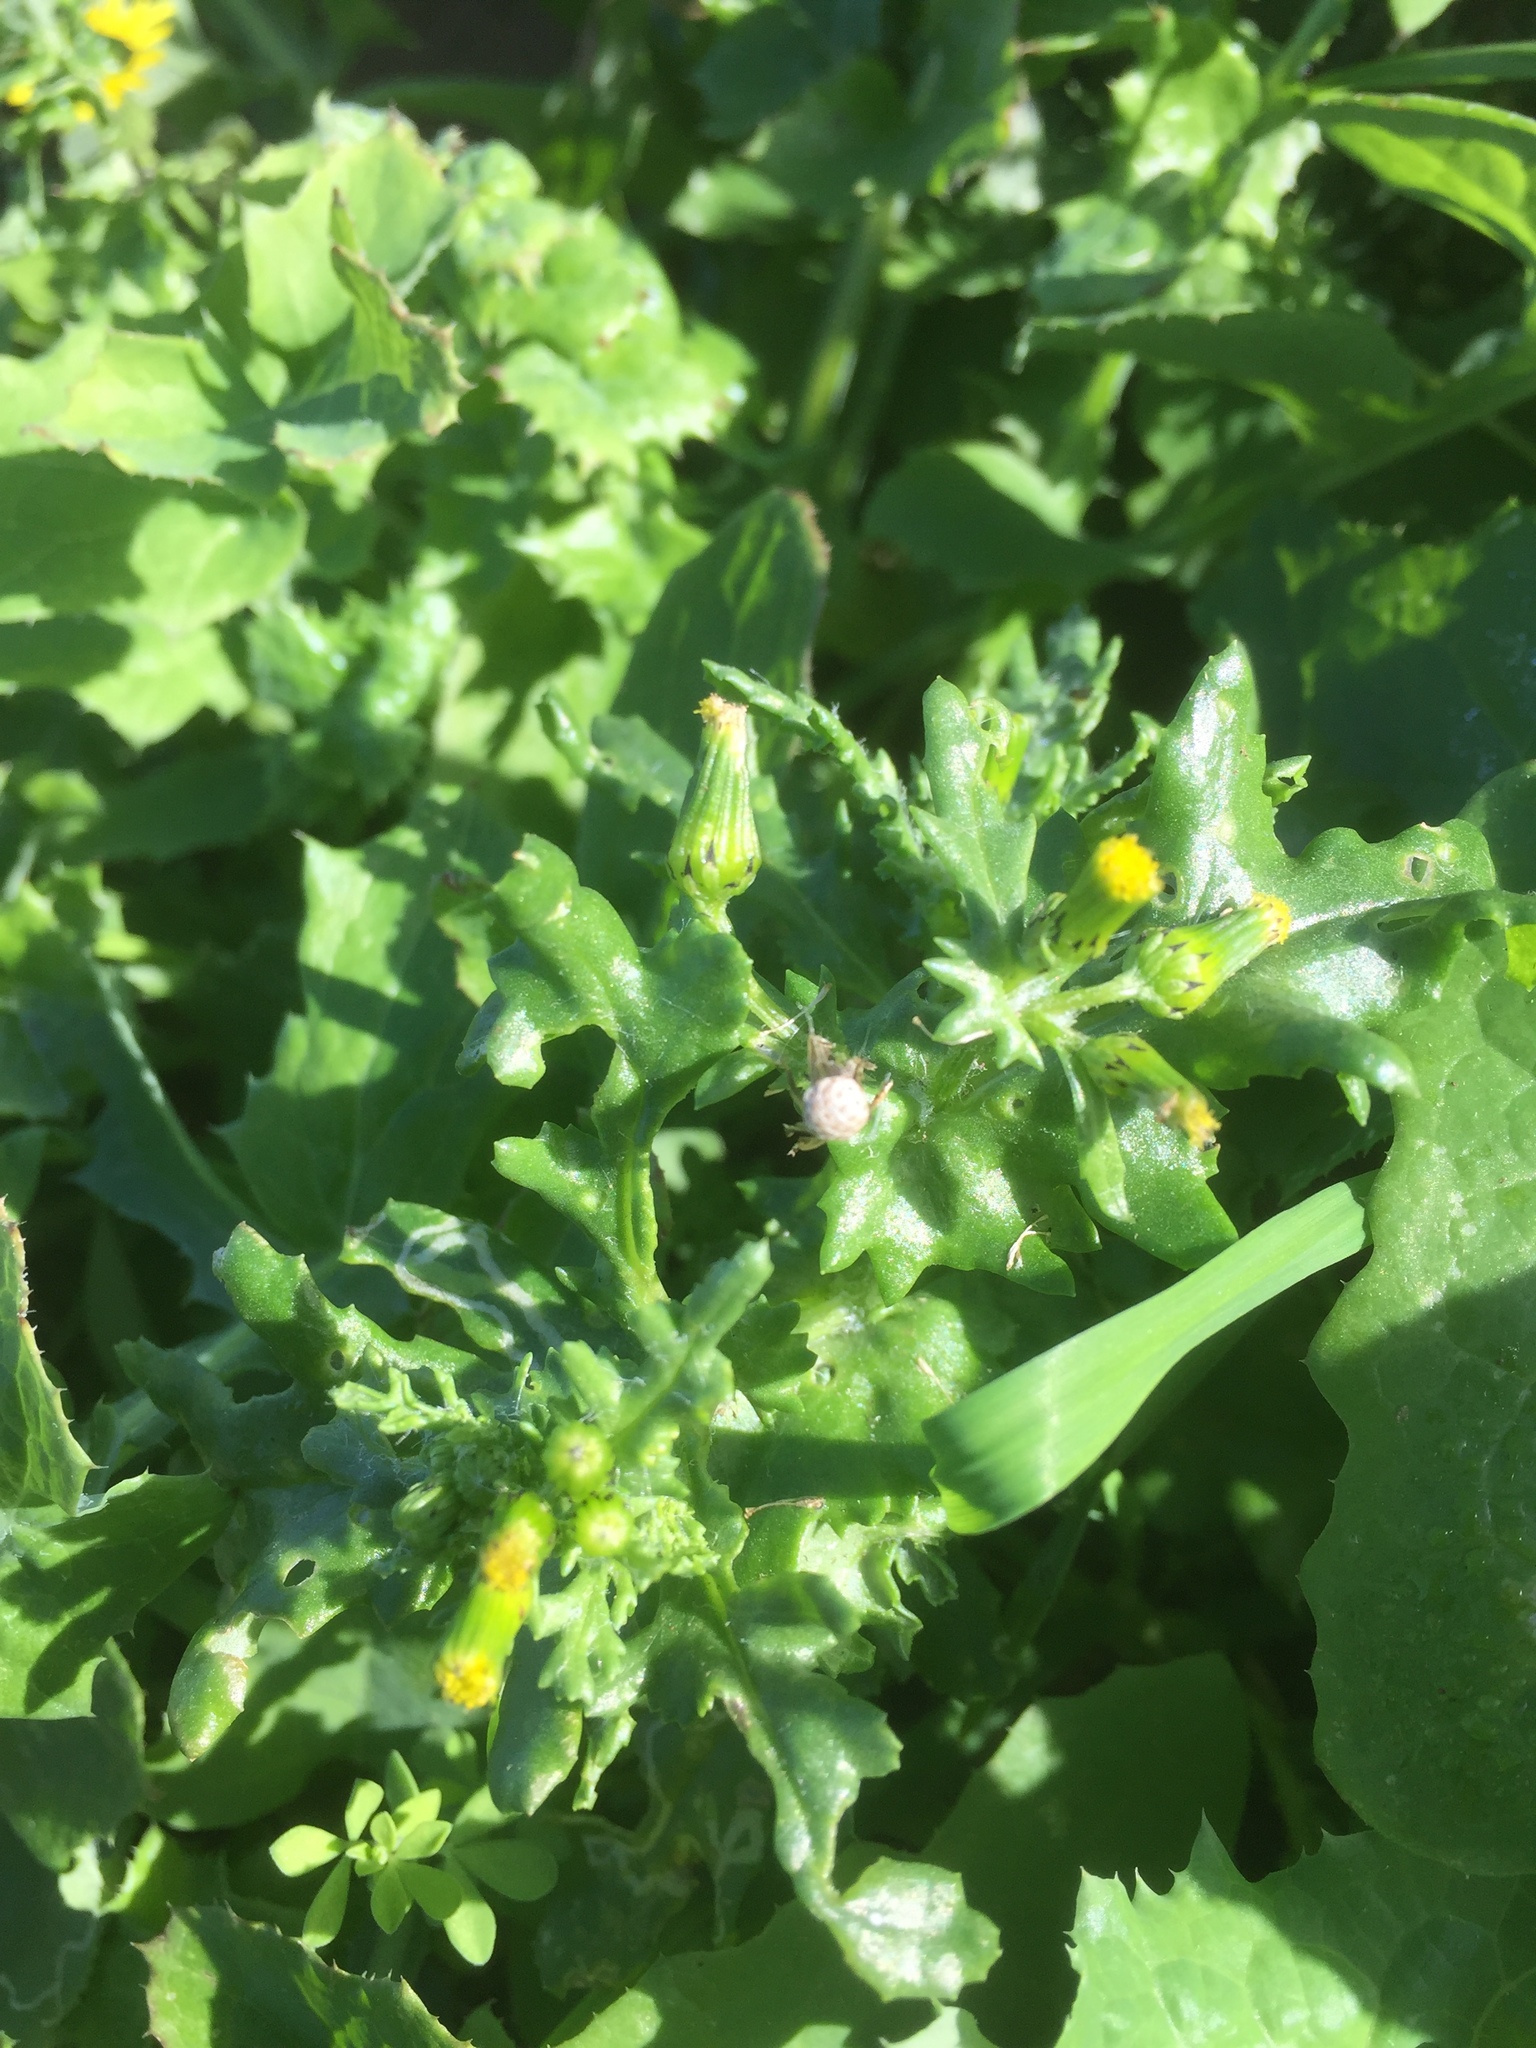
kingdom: Plantae
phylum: Tracheophyta
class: Magnoliopsida
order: Asterales
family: Asteraceae
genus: Senecio
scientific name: Senecio vulgaris
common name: Old-man-in-the-spring
